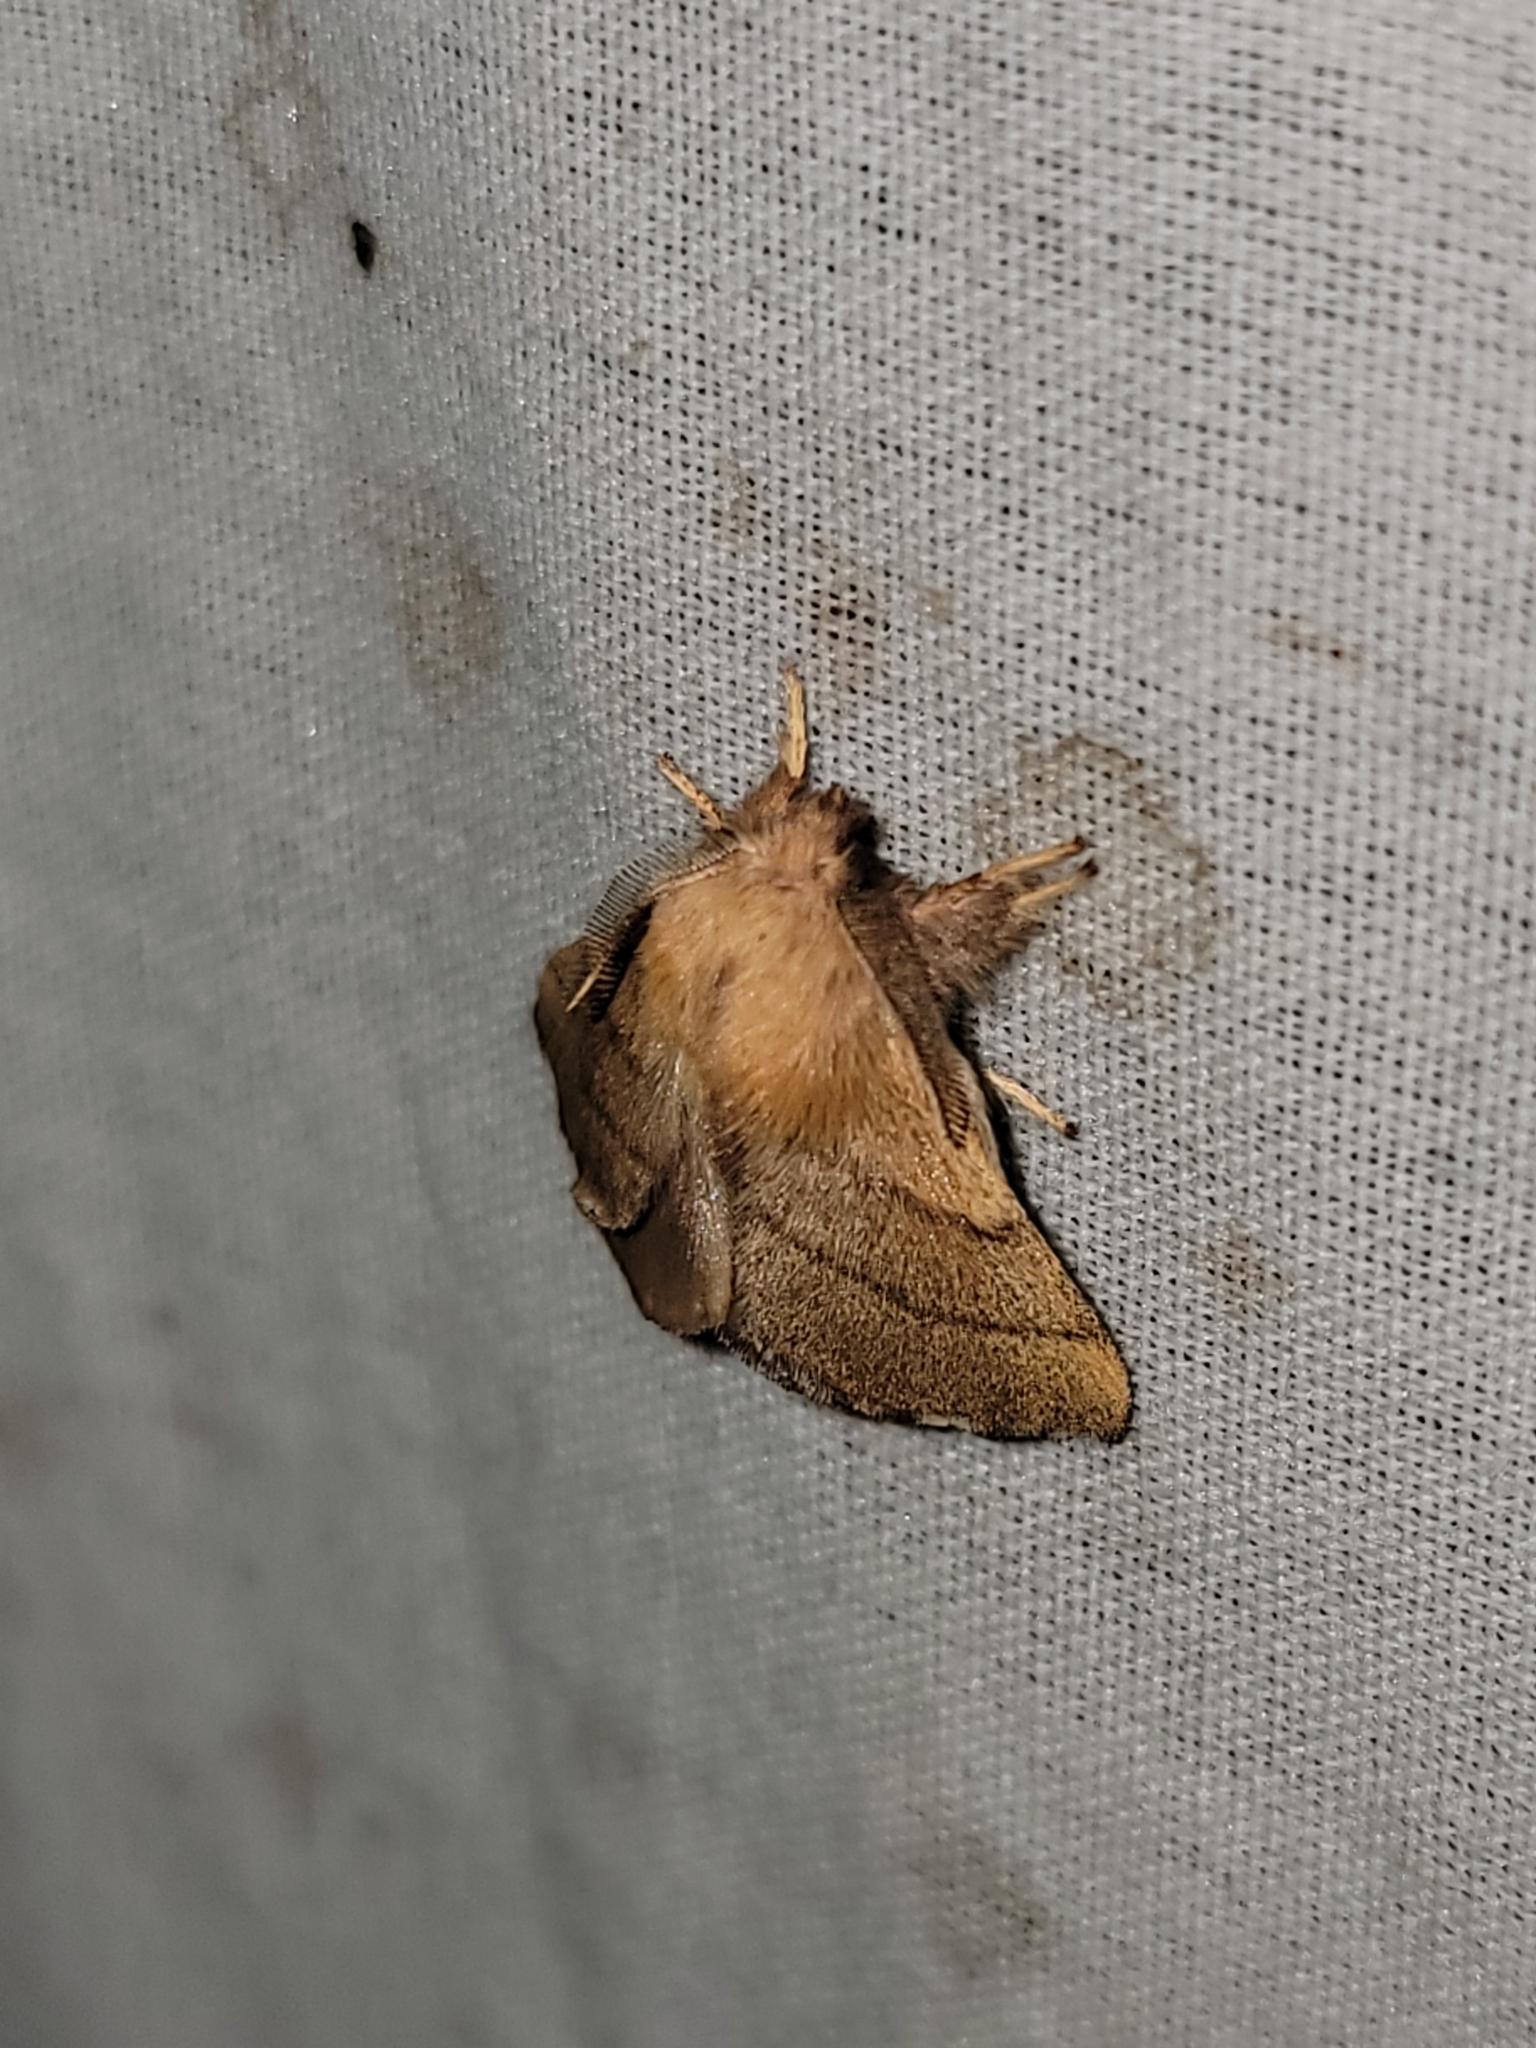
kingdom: Animalia
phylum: Arthropoda
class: Insecta
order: Lepidoptera
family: Lasiocampidae
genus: Malacosoma
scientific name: Malacosoma disstria
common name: Forest tent caterpillar
